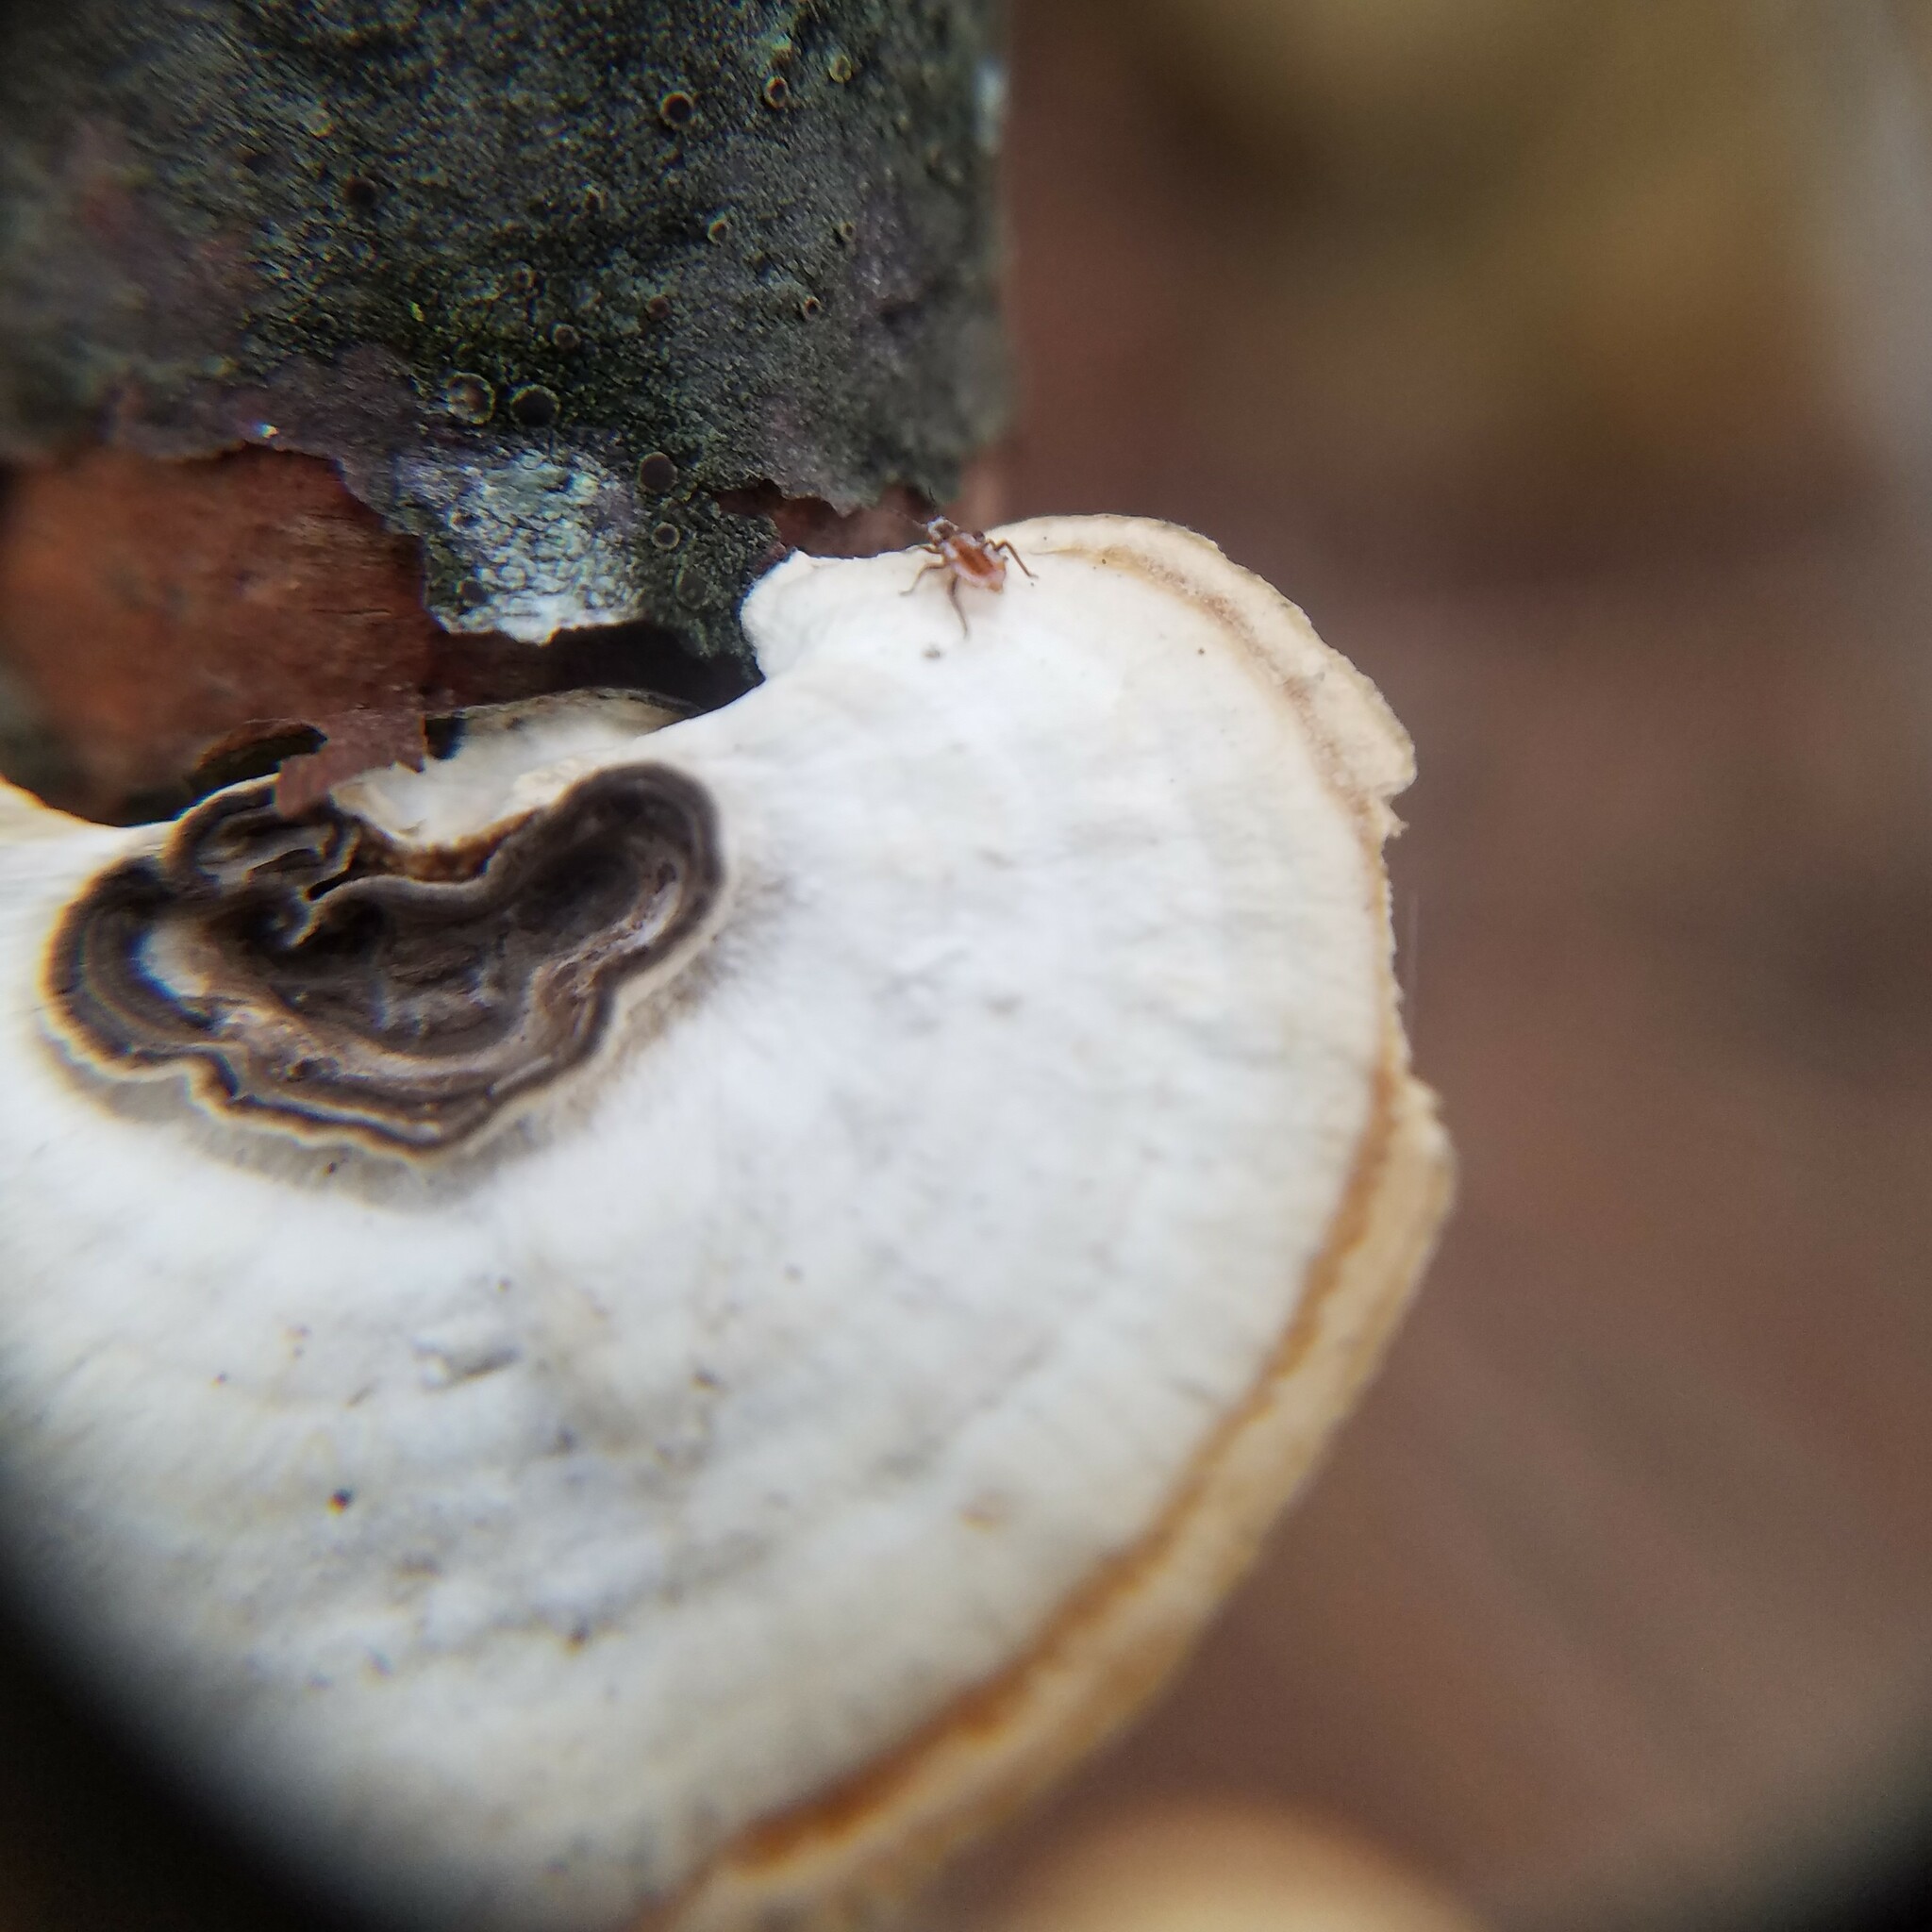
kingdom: Fungi
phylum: Basidiomycota
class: Agaricomycetes
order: Polyporales
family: Polyporaceae
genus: Poronidulus
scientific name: Poronidulus conchifer
